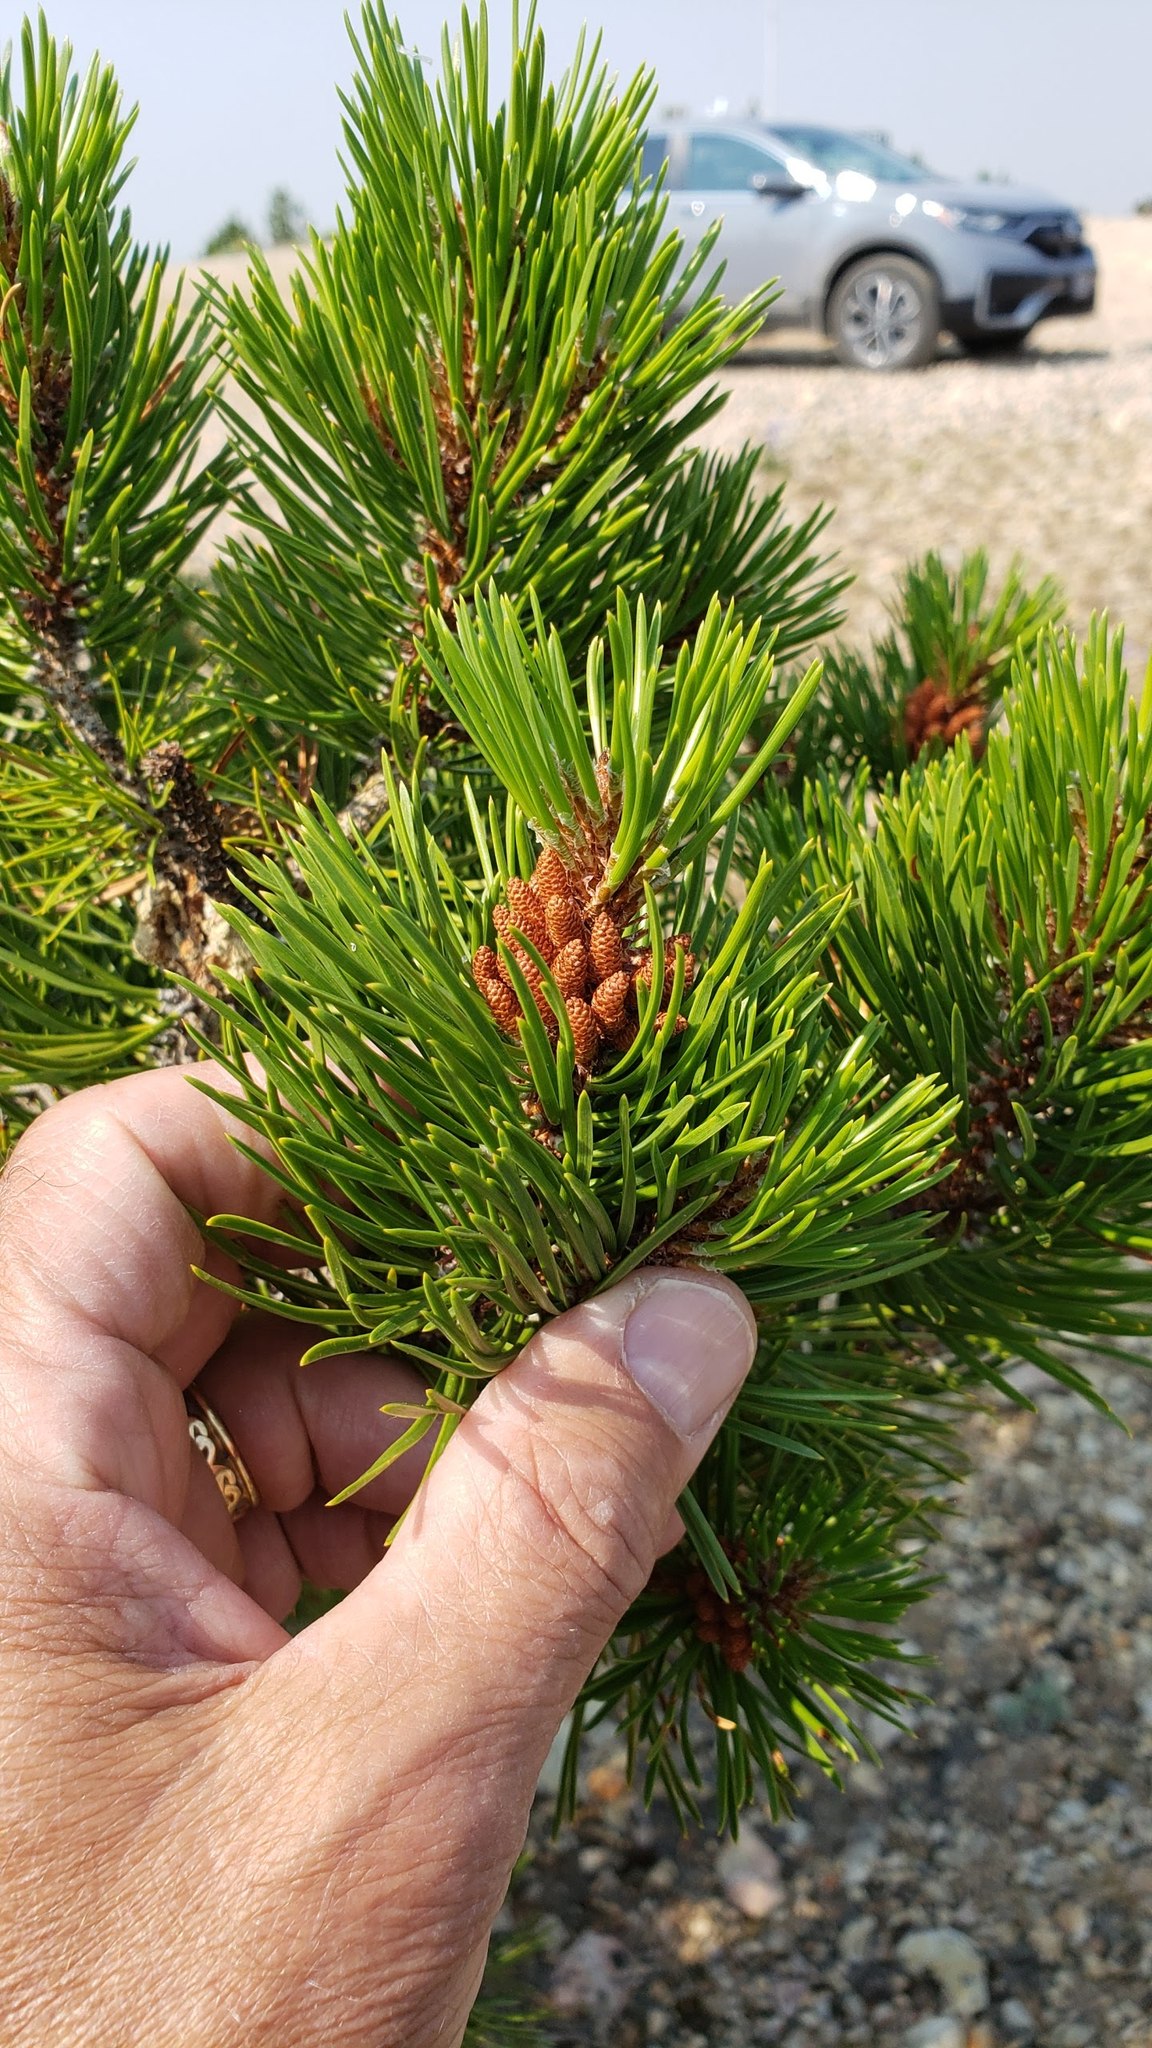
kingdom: Plantae
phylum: Tracheophyta
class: Pinopsida
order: Pinales
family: Pinaceae
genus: Pinus
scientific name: Pinus contorta
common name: Lodgepole pine
